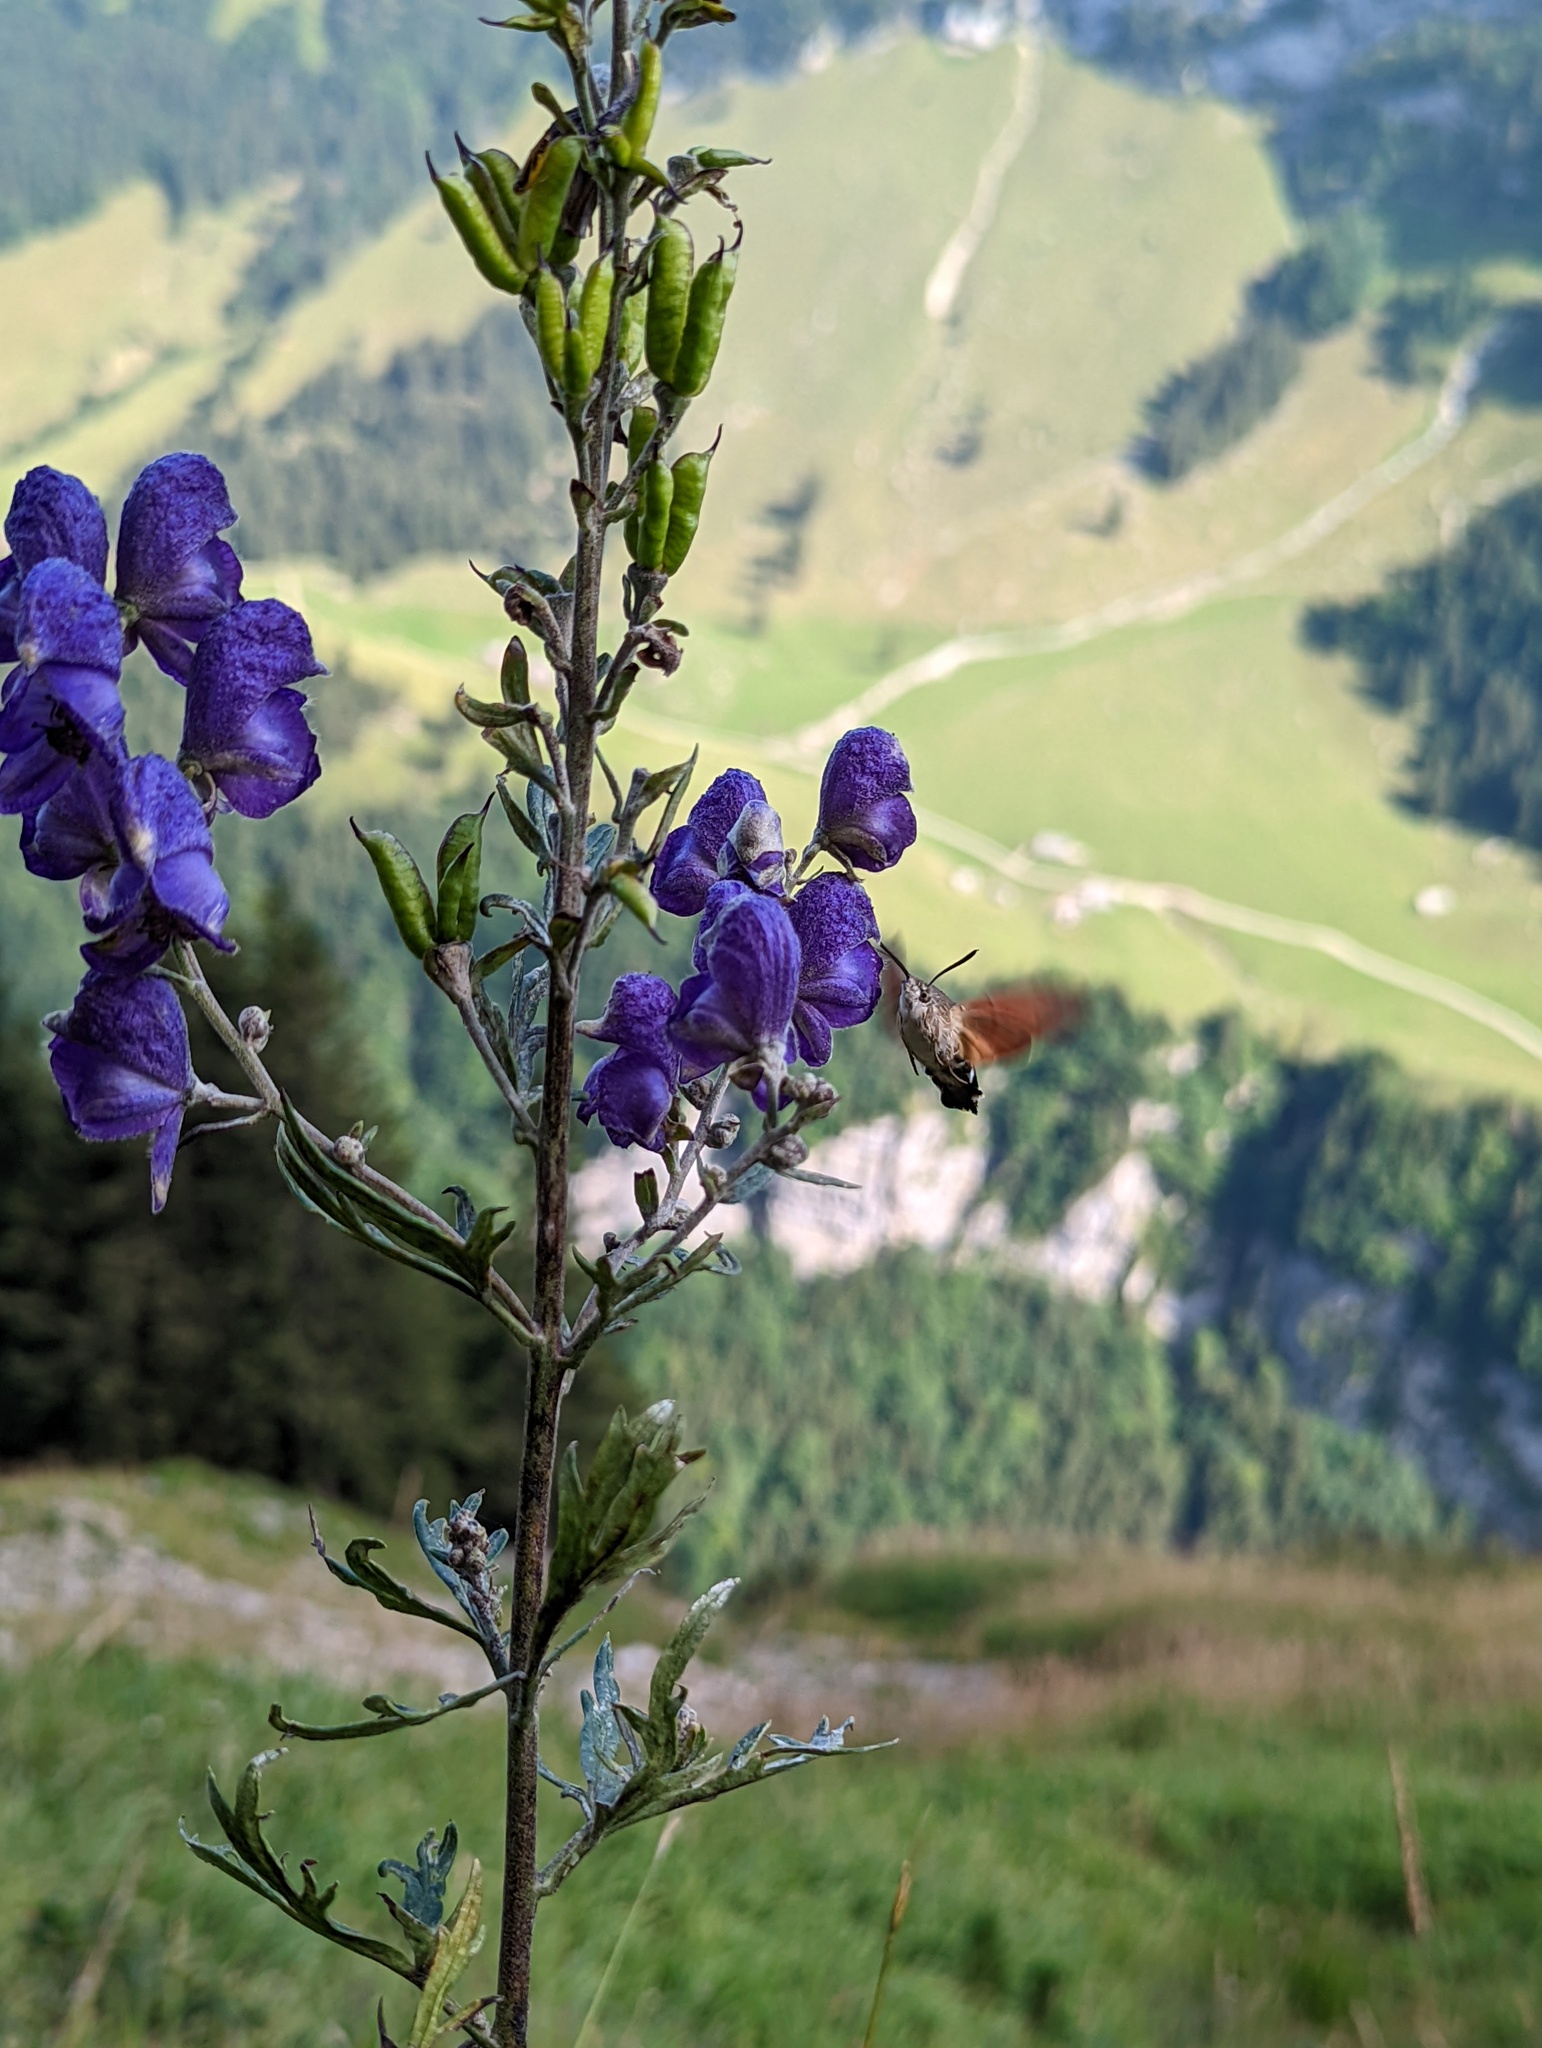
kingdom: Animalia
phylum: Arthropoda
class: Insecta
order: Lepidoptera
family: Sphingidae
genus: Macroglossum
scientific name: Macroglossum stellatarum
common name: Humming-bird hawk-moth
